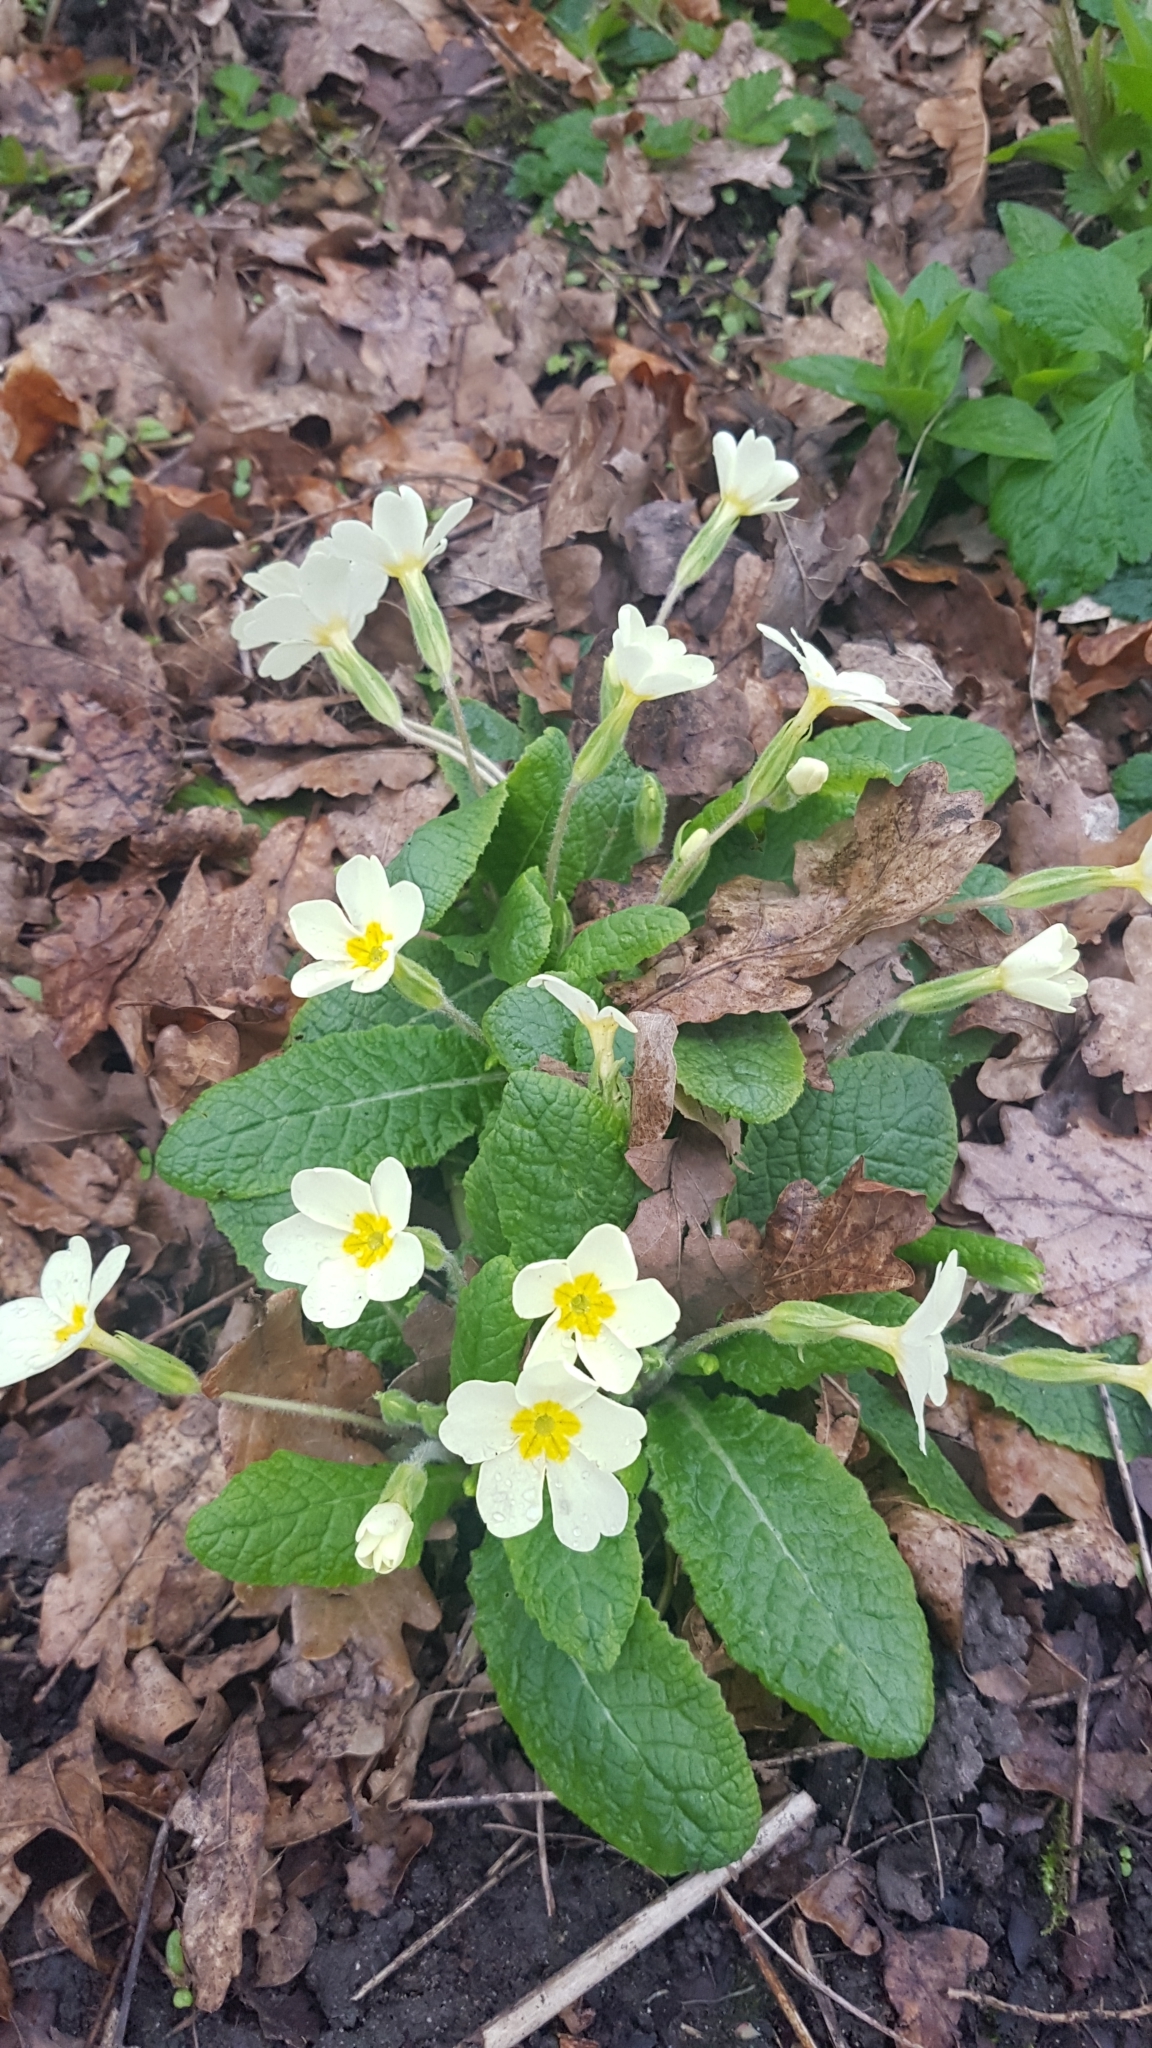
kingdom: Plantae
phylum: Tracheophyta
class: Magnoliopsida
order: Ericales
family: Primulaceae
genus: Primula
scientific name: Primula vulgaris
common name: Primrose
